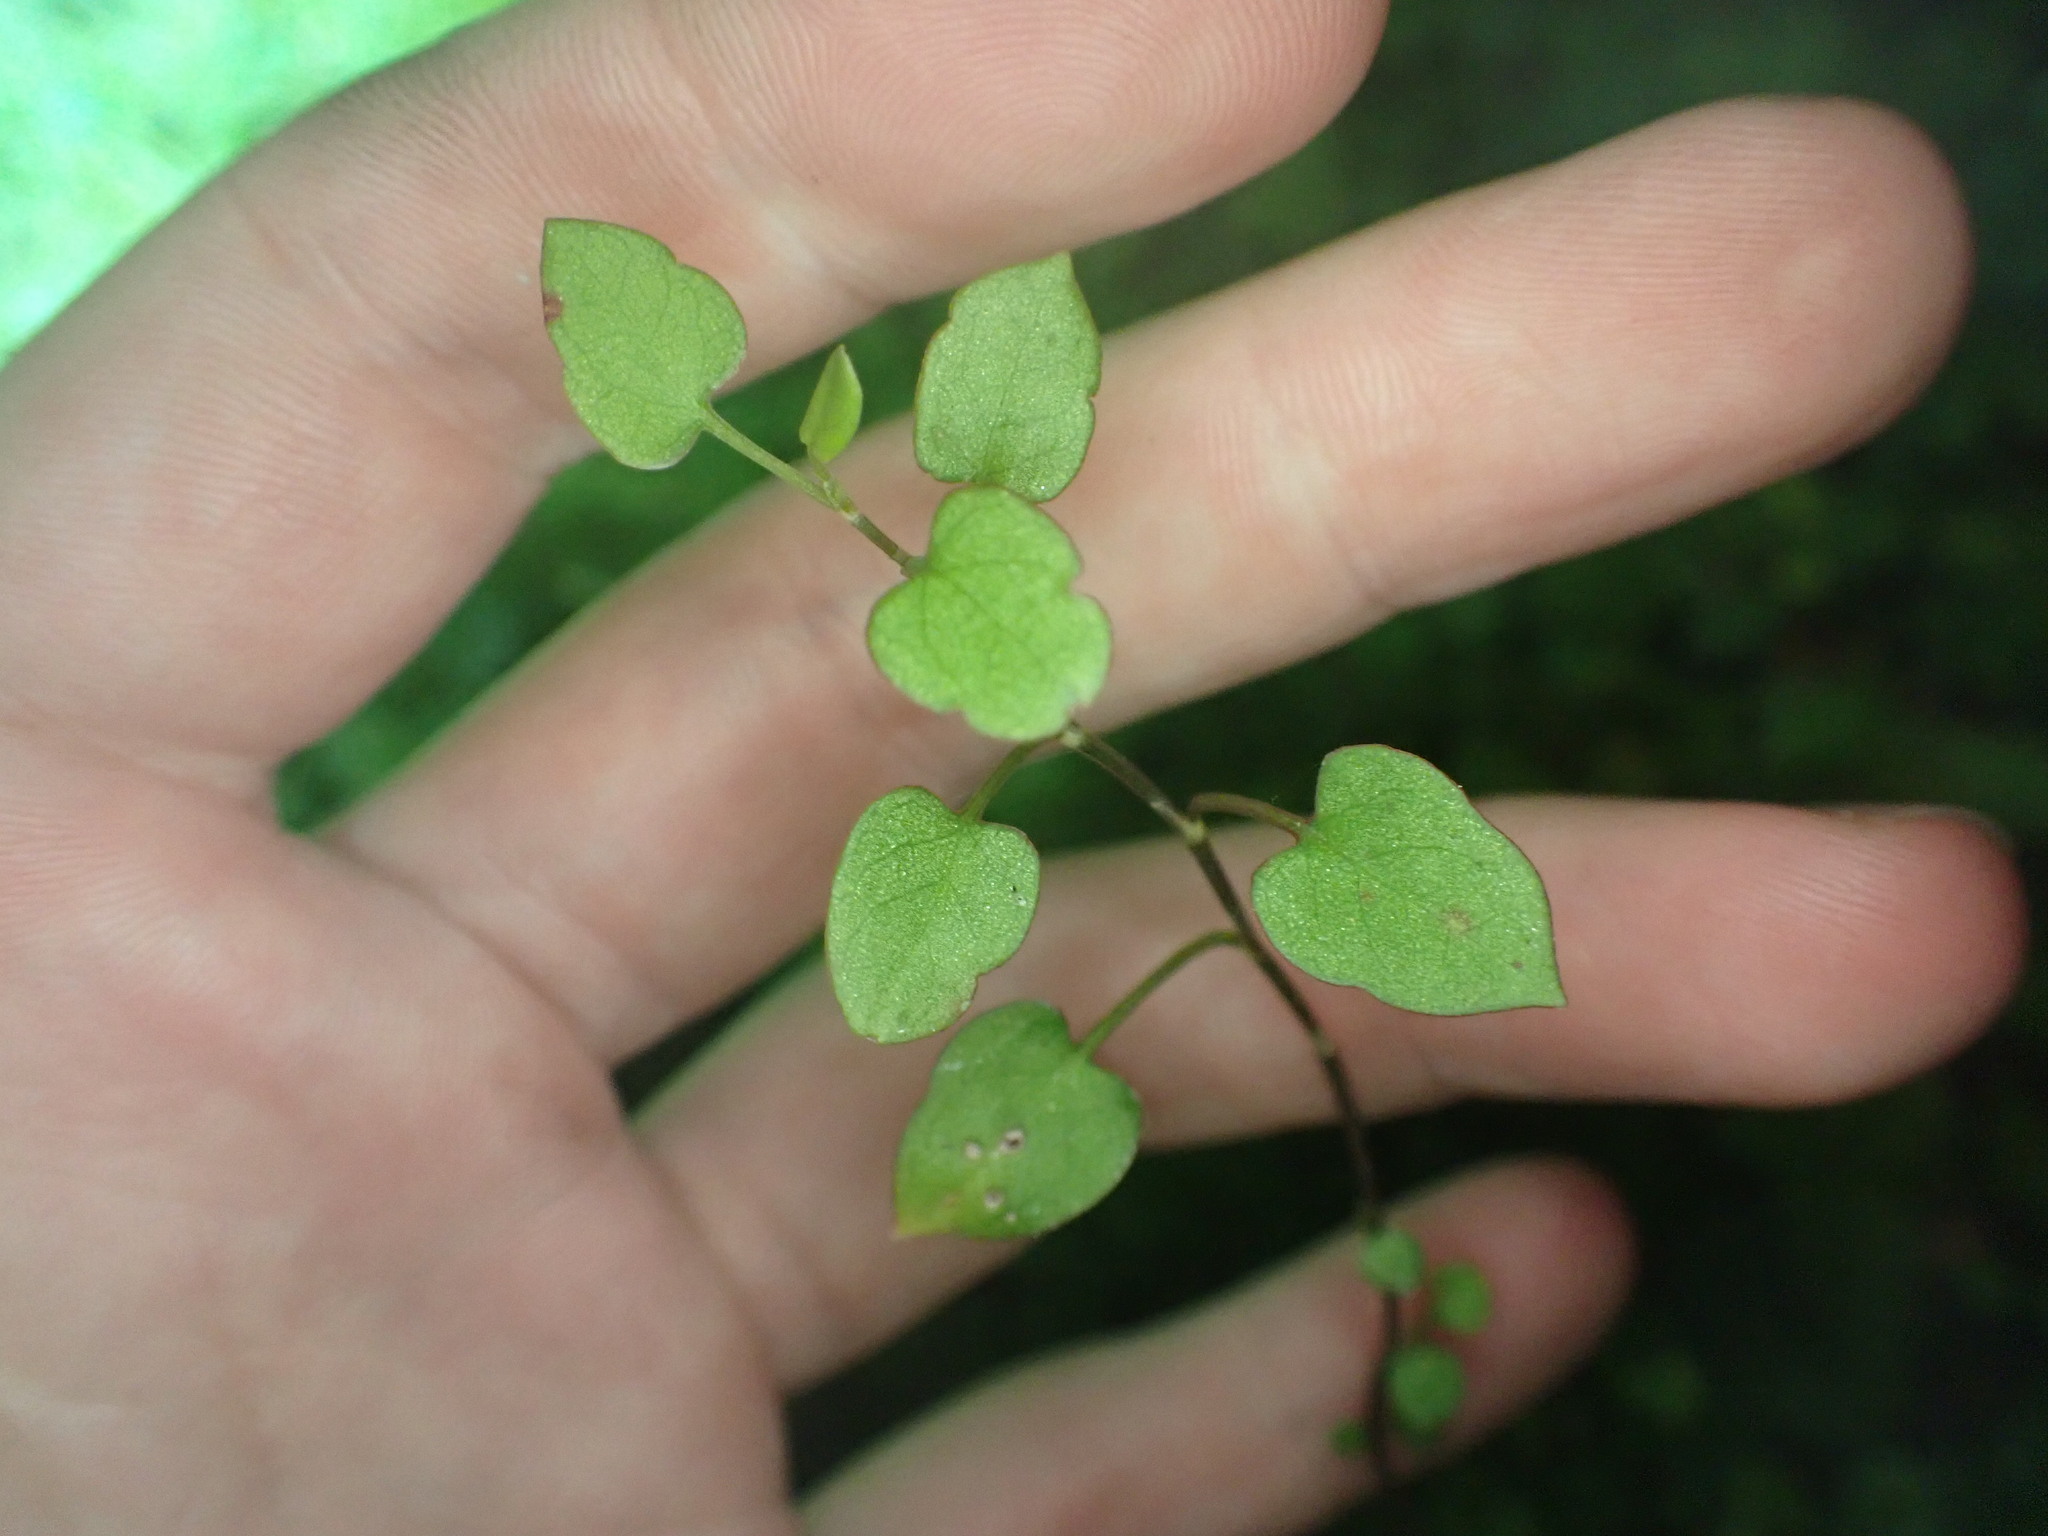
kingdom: Plantae
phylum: Tracheophyta
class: Magnoliopsida
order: Caryophyllales
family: Polygonaceae
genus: Muehlenbeckia
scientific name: Muehlenbeckia australis
